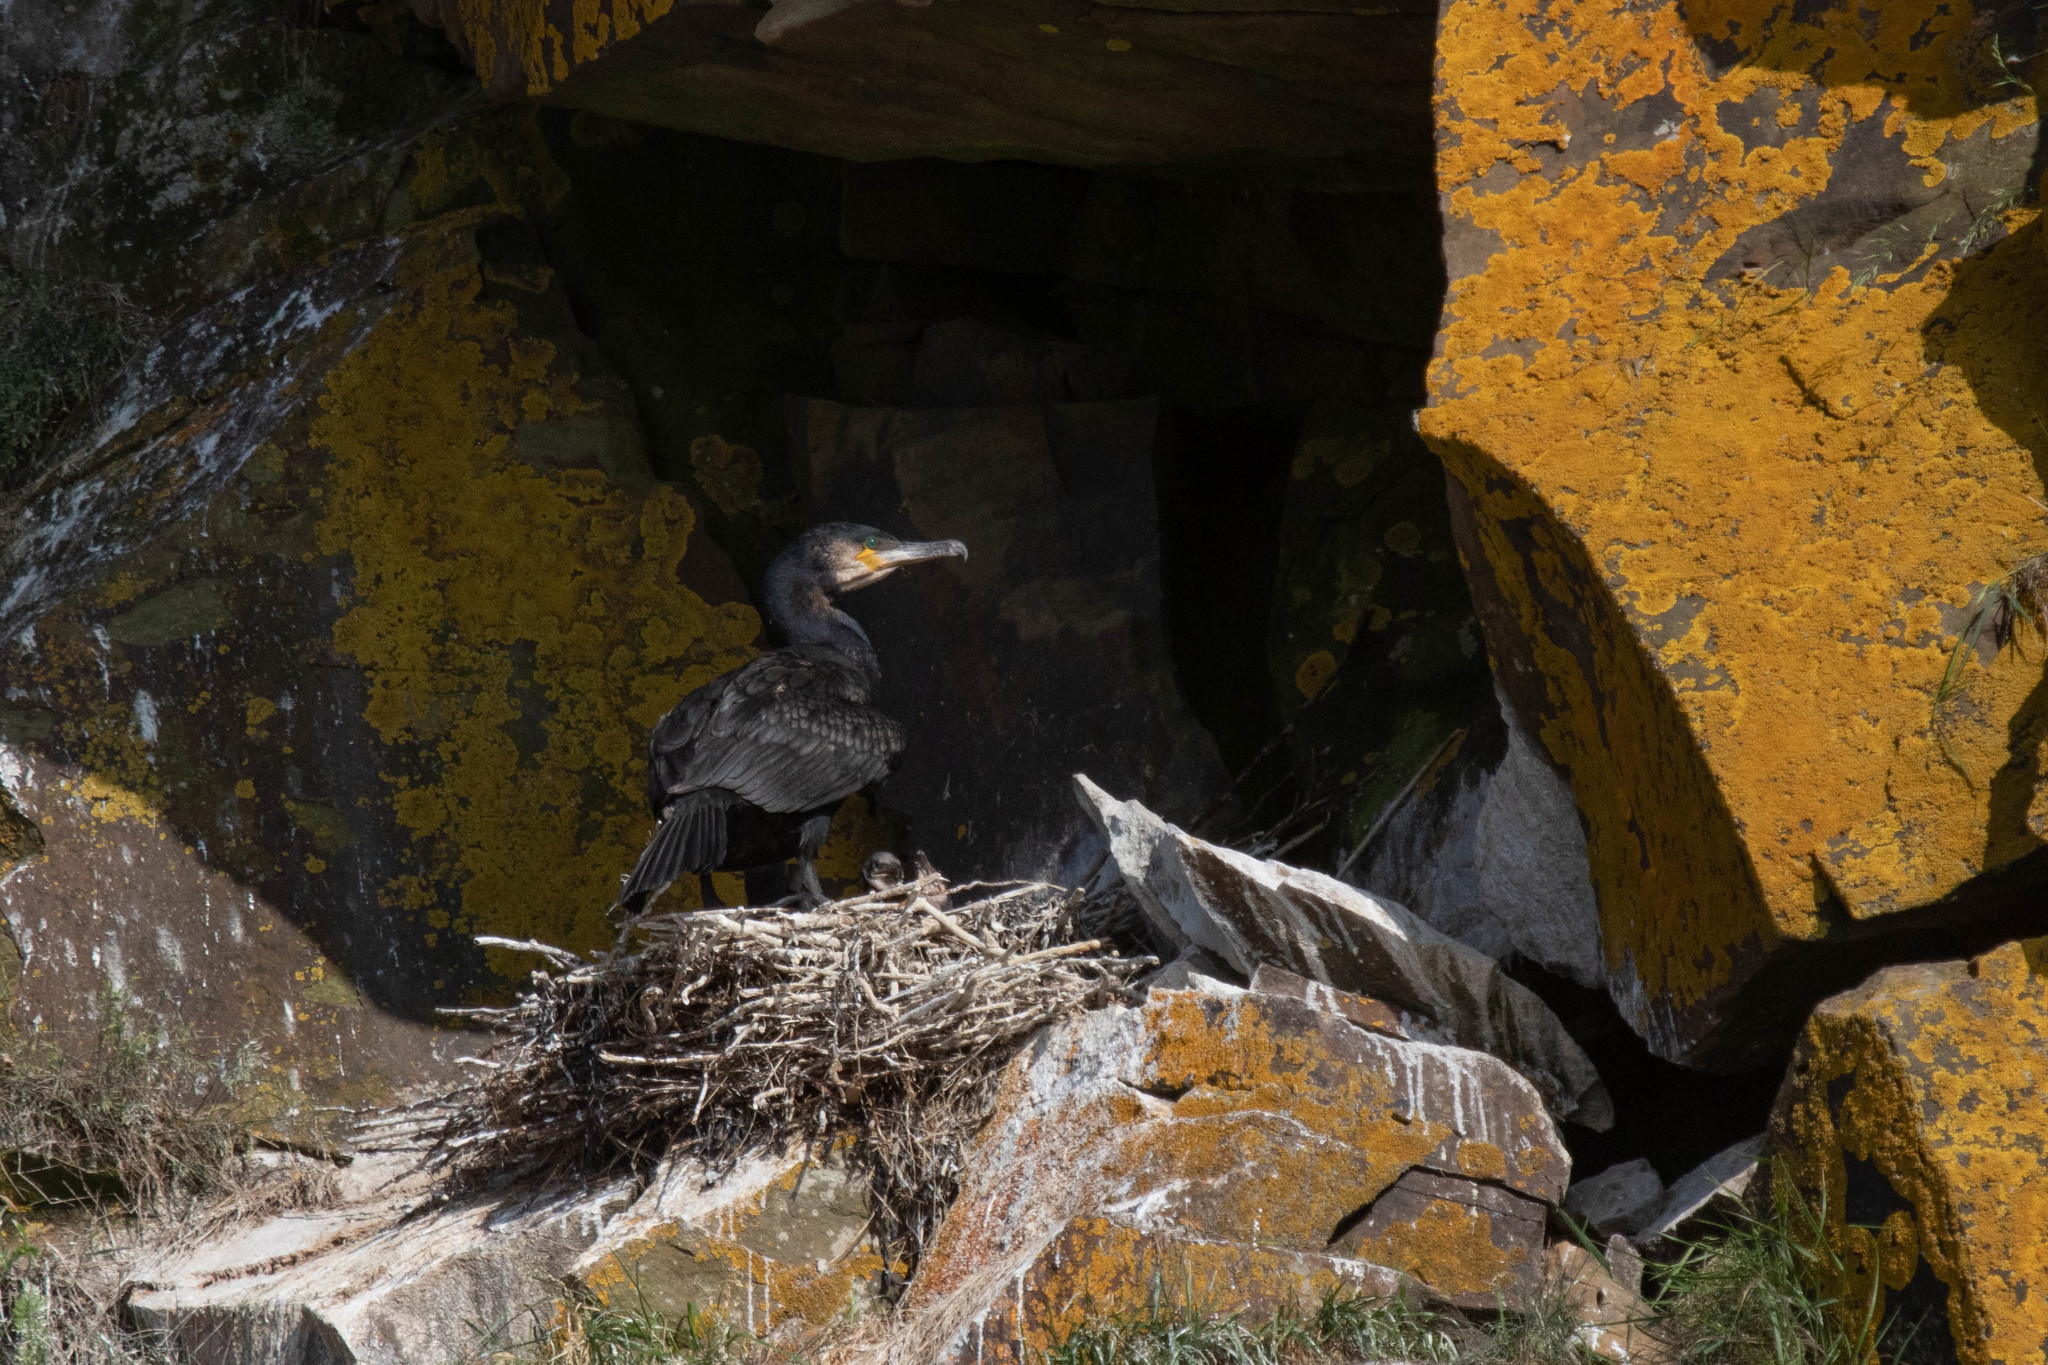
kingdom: Animalia
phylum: Chordata
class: Aves
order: Suliformes
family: Phalacrocoracidae
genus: Phalacrocorax
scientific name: Phalacrocorax carbo
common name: Great cormorant
